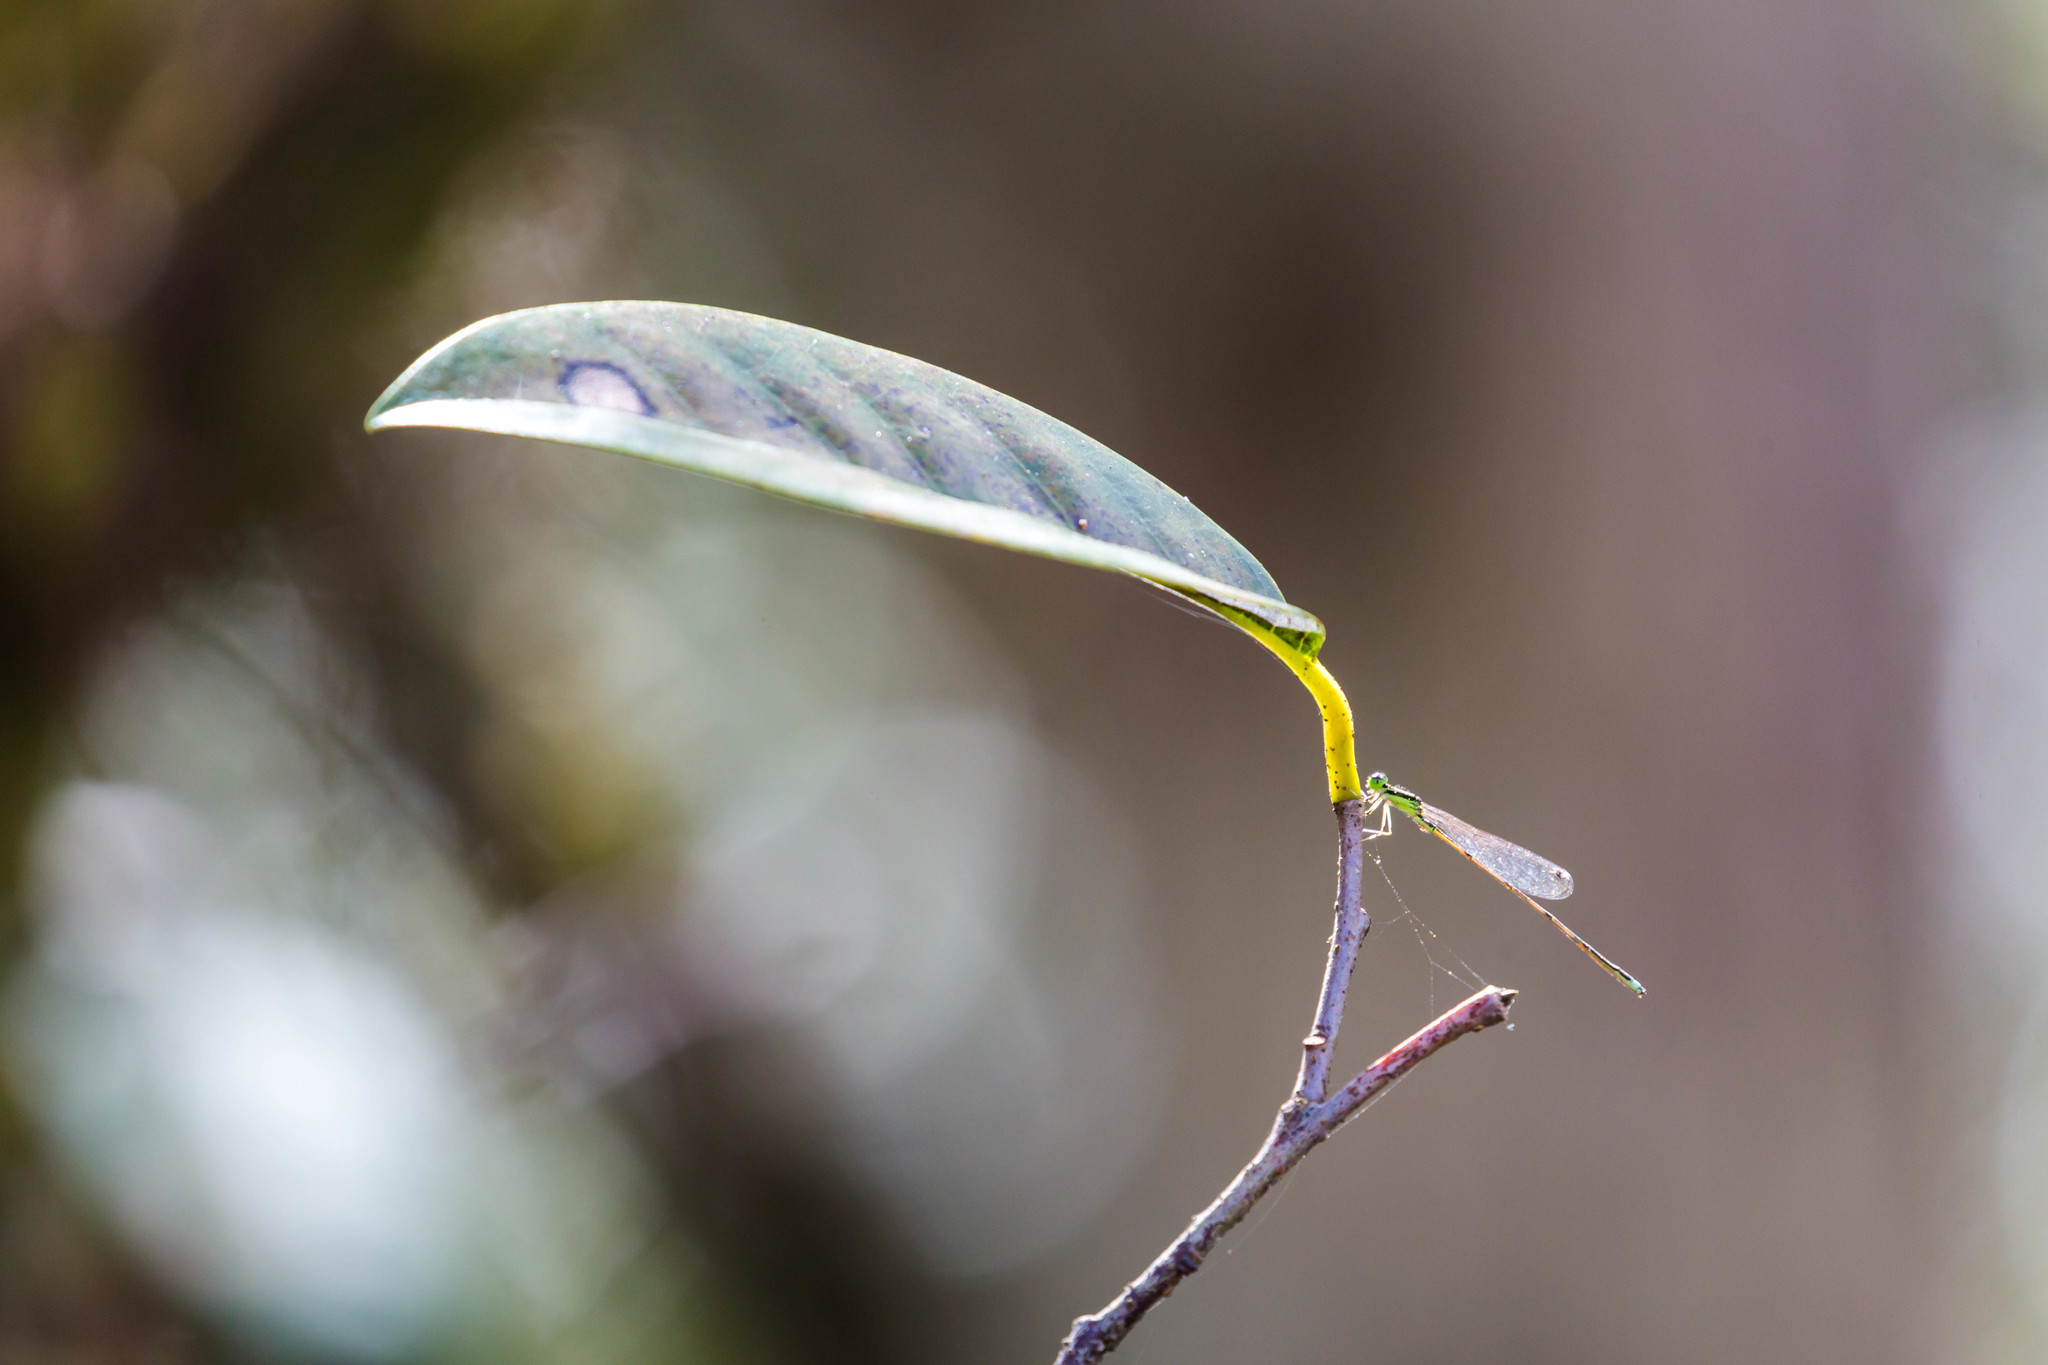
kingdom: Animalia
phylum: Arthropoda
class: Insecta
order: Odonata
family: Coenagrionidae
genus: Ischnura
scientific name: Ischnura prognata
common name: Furtive forktail
